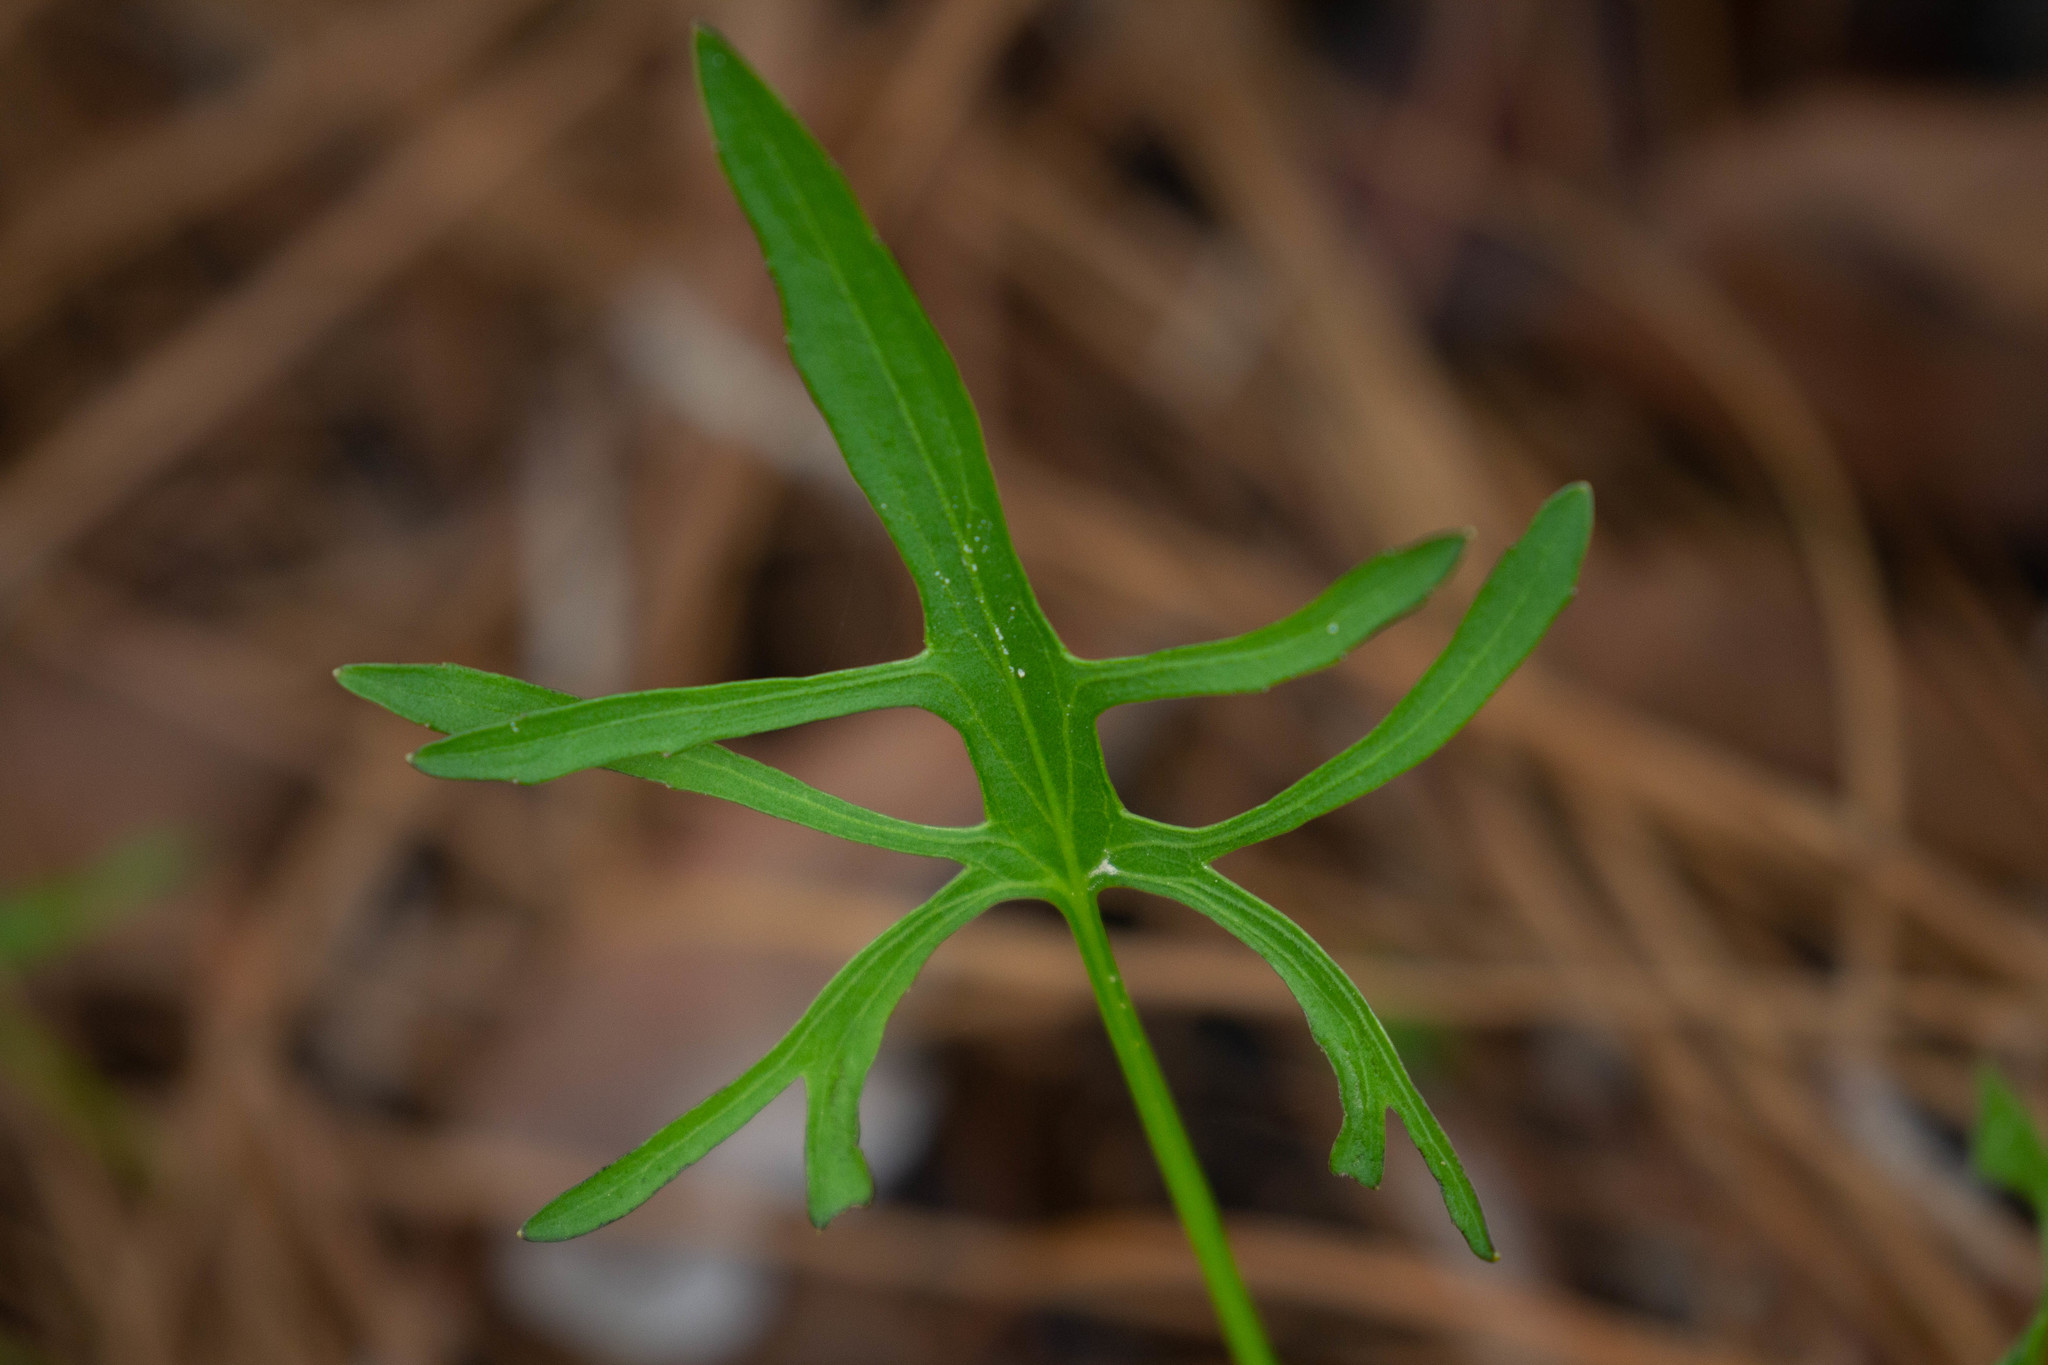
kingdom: Plantae
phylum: Tracheophyta
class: Magnoliopsida
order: Malpighiales
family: Violaceae
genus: Viola
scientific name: Viola septemloba
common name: Southern coast violet
